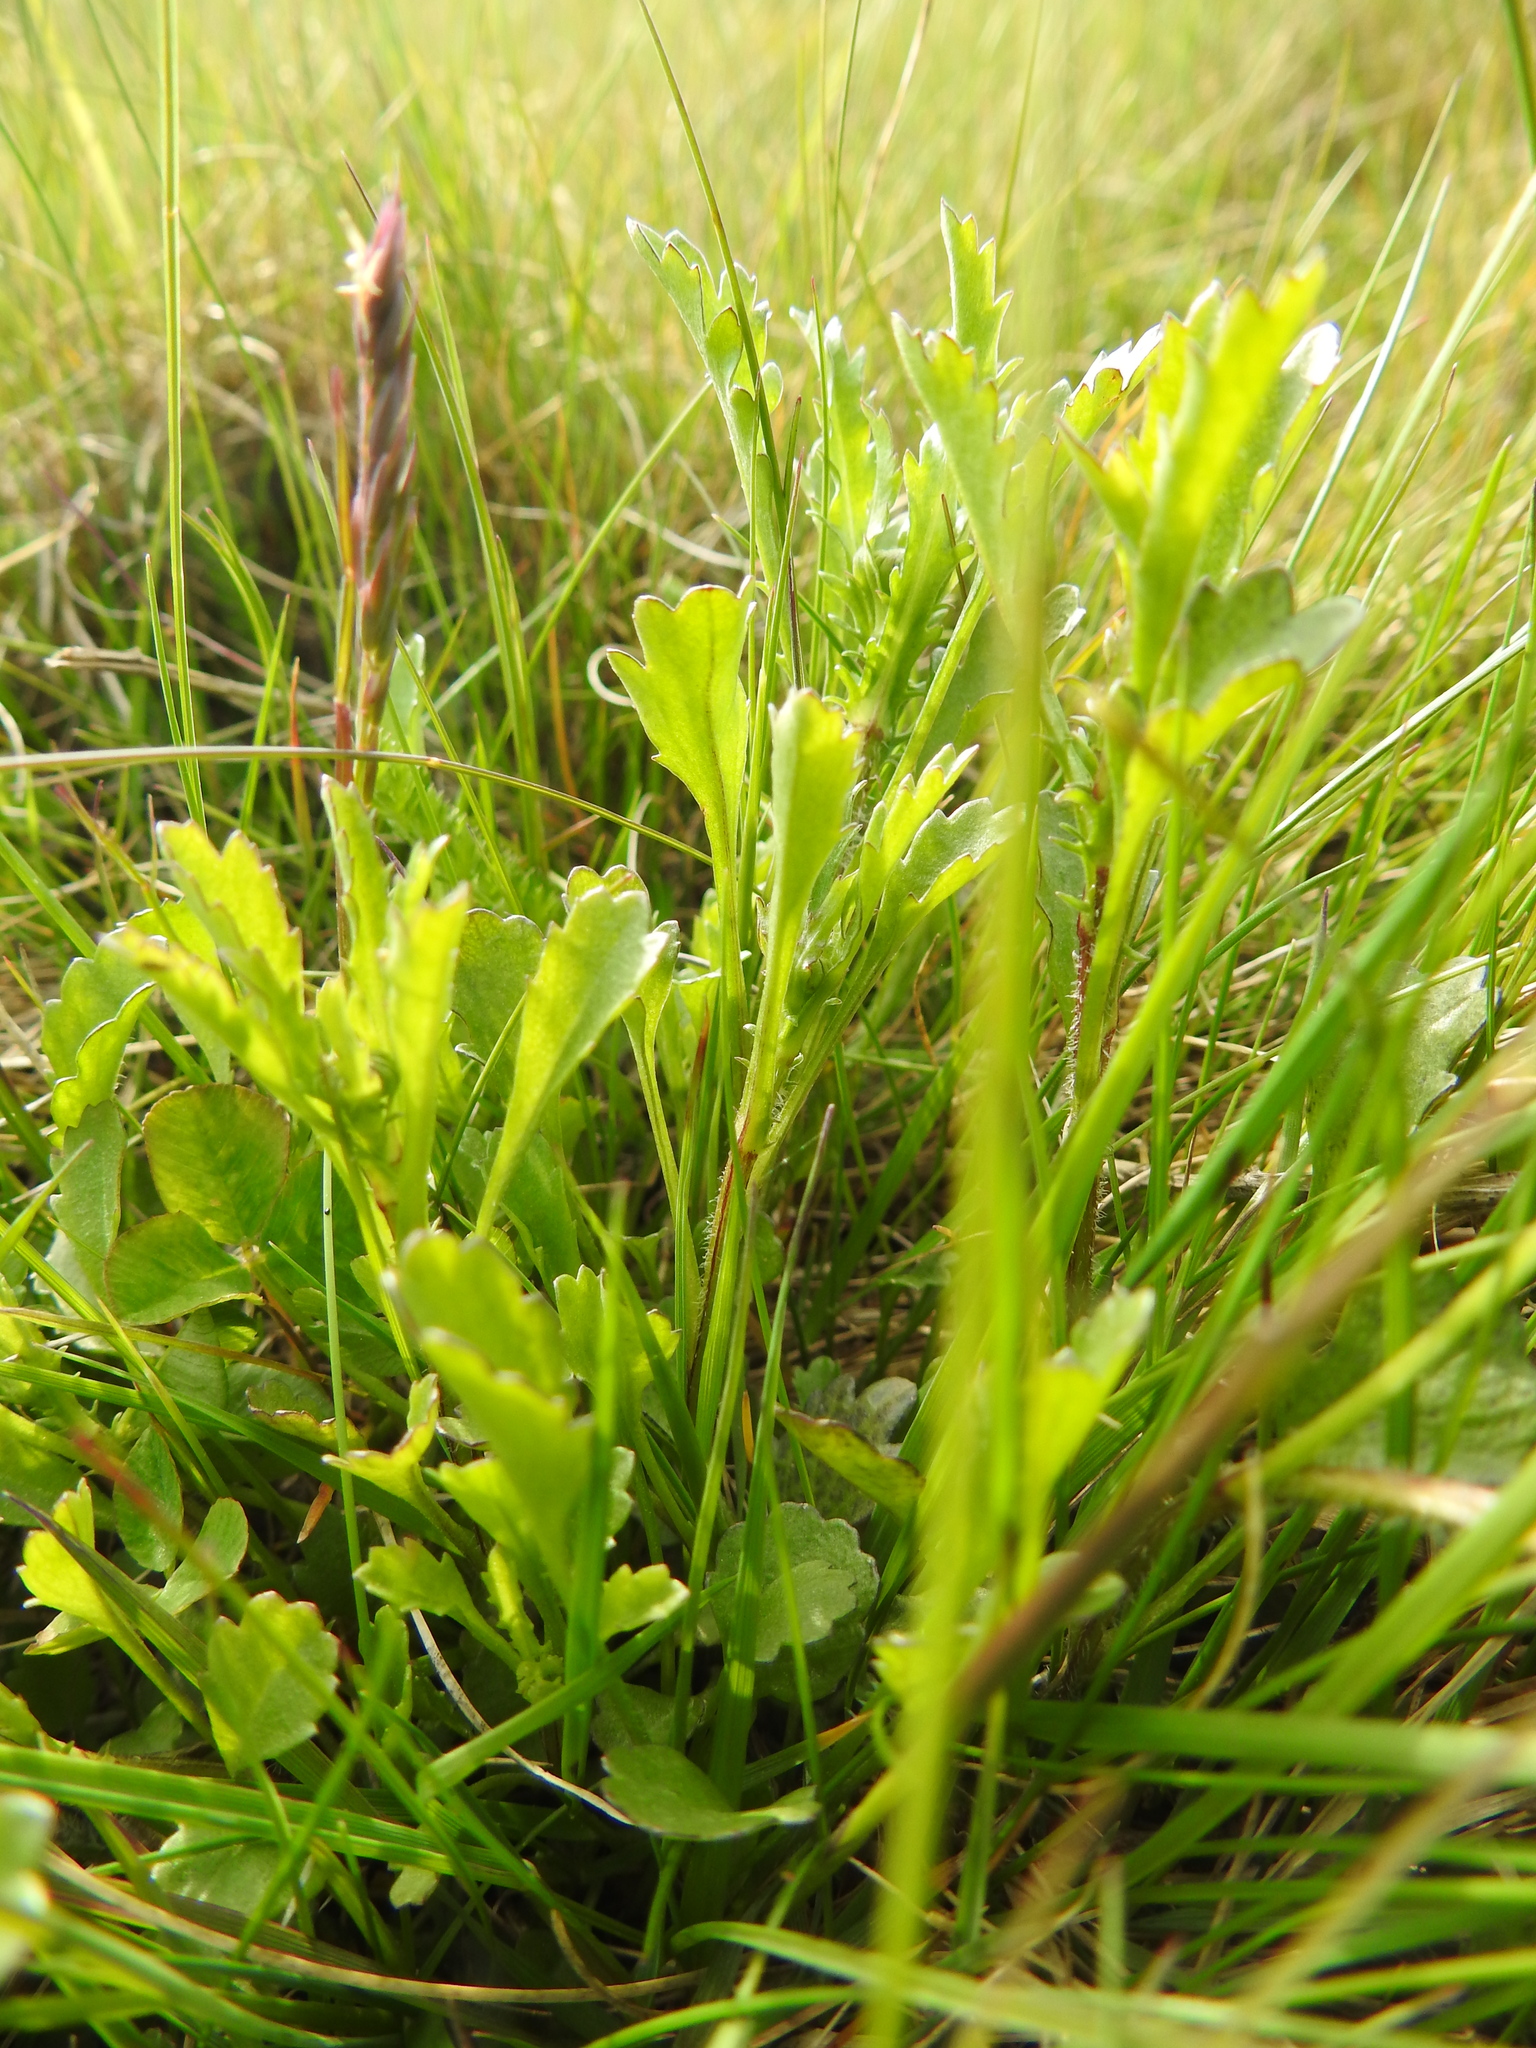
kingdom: Plantae
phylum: Tracheophyta
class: Magnoliopsida
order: Asterales
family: Asteraceae
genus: Leucanthemum
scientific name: Leucanthemum vulgare
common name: Oxeye daisy
